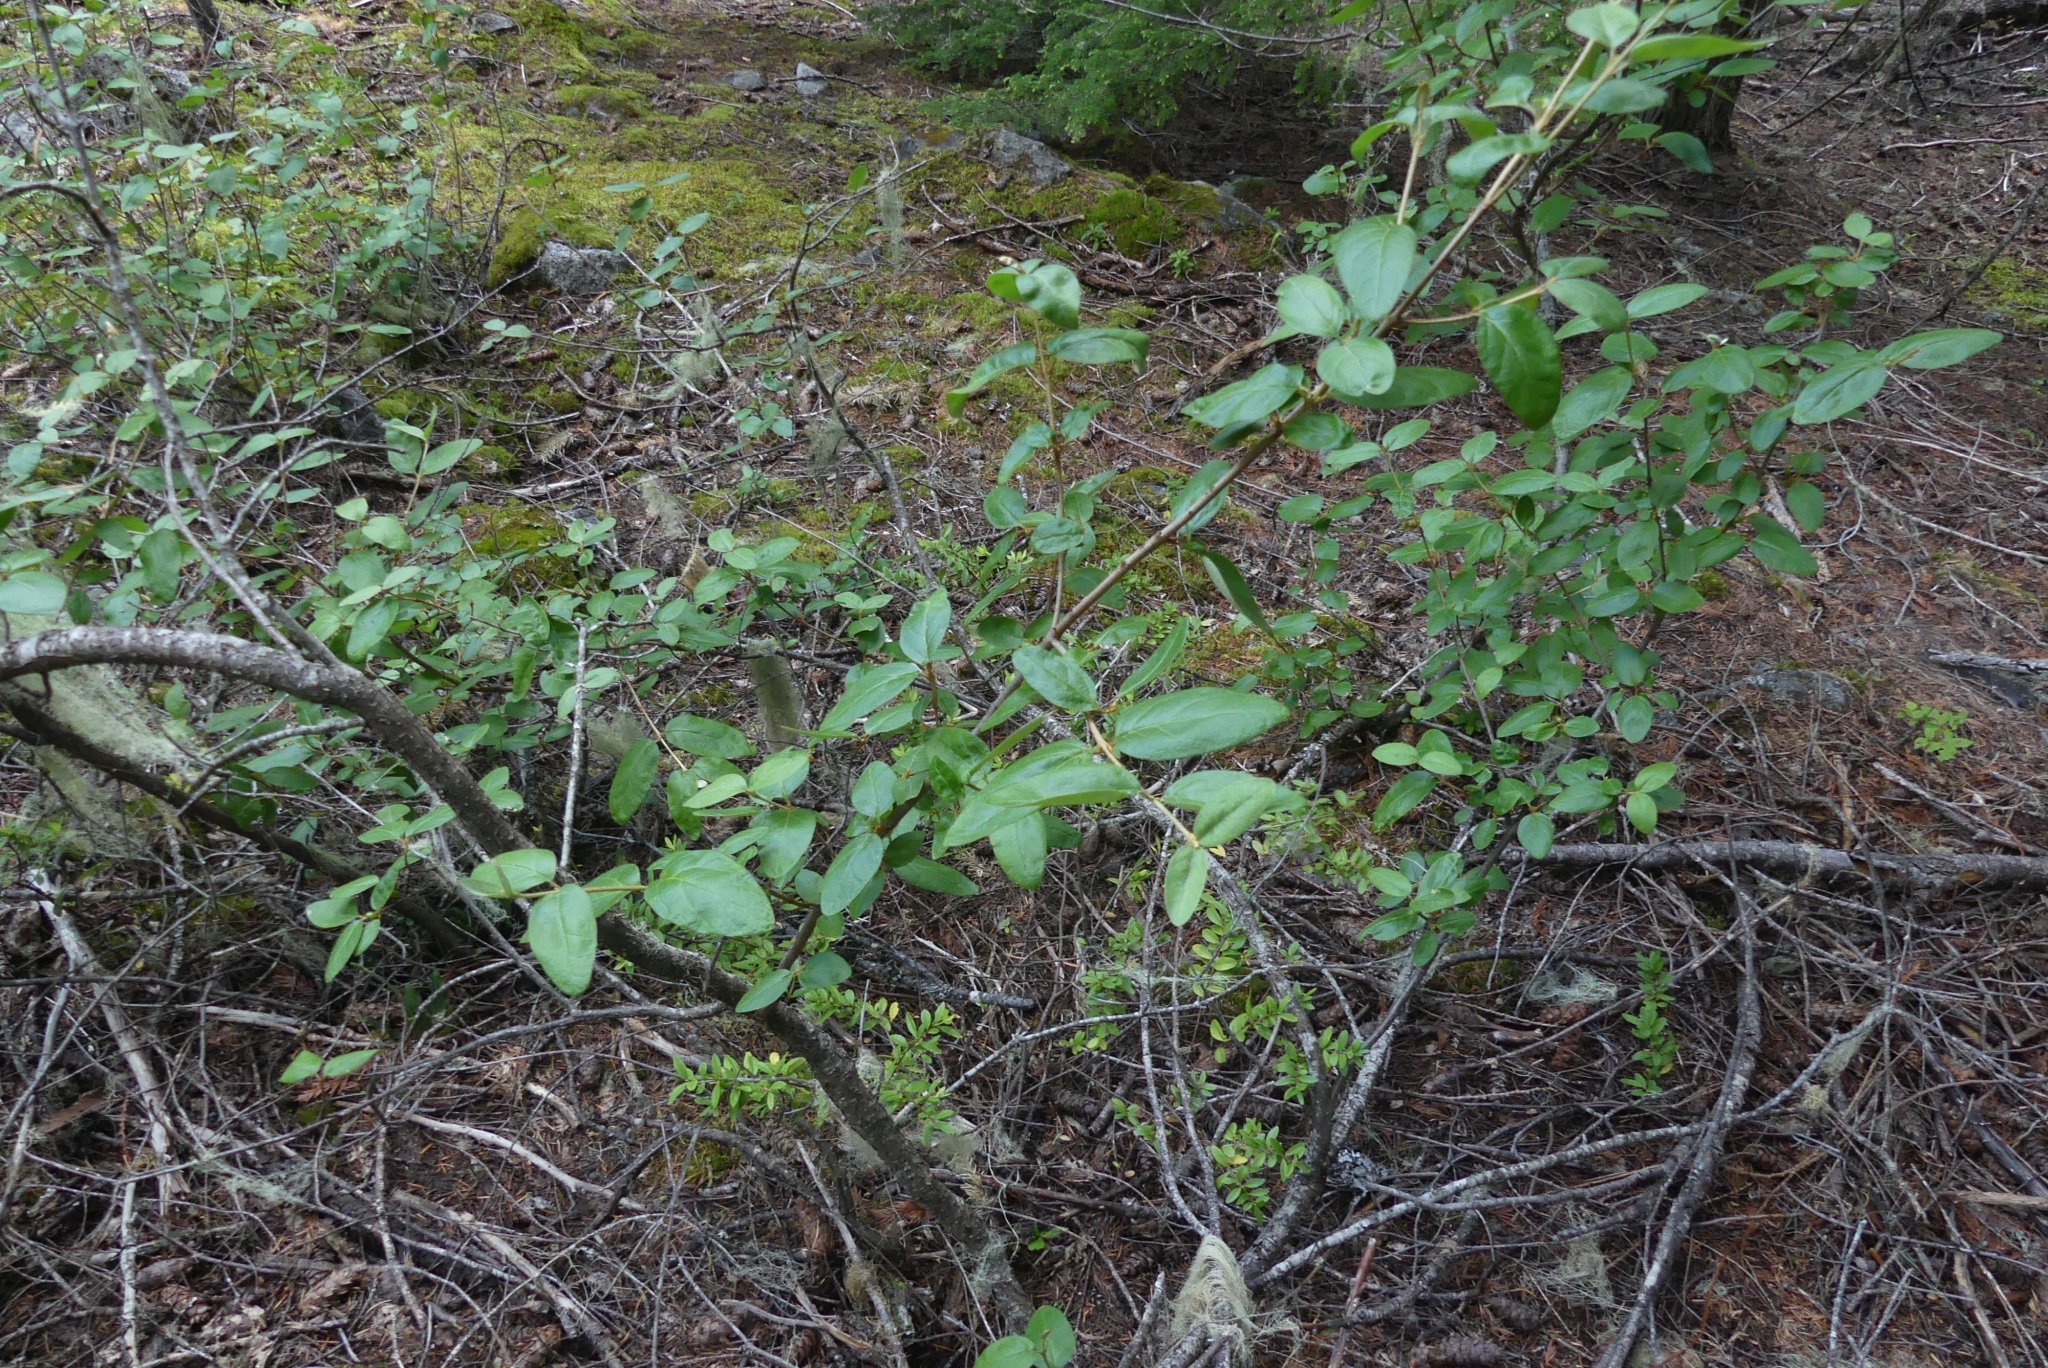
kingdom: Plantae
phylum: Tracheophyta
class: Magnoliopsida
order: Rosales
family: Elaeagnaceae
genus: Shepherdia
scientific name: Shepherdia canadensis
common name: Soapberry
